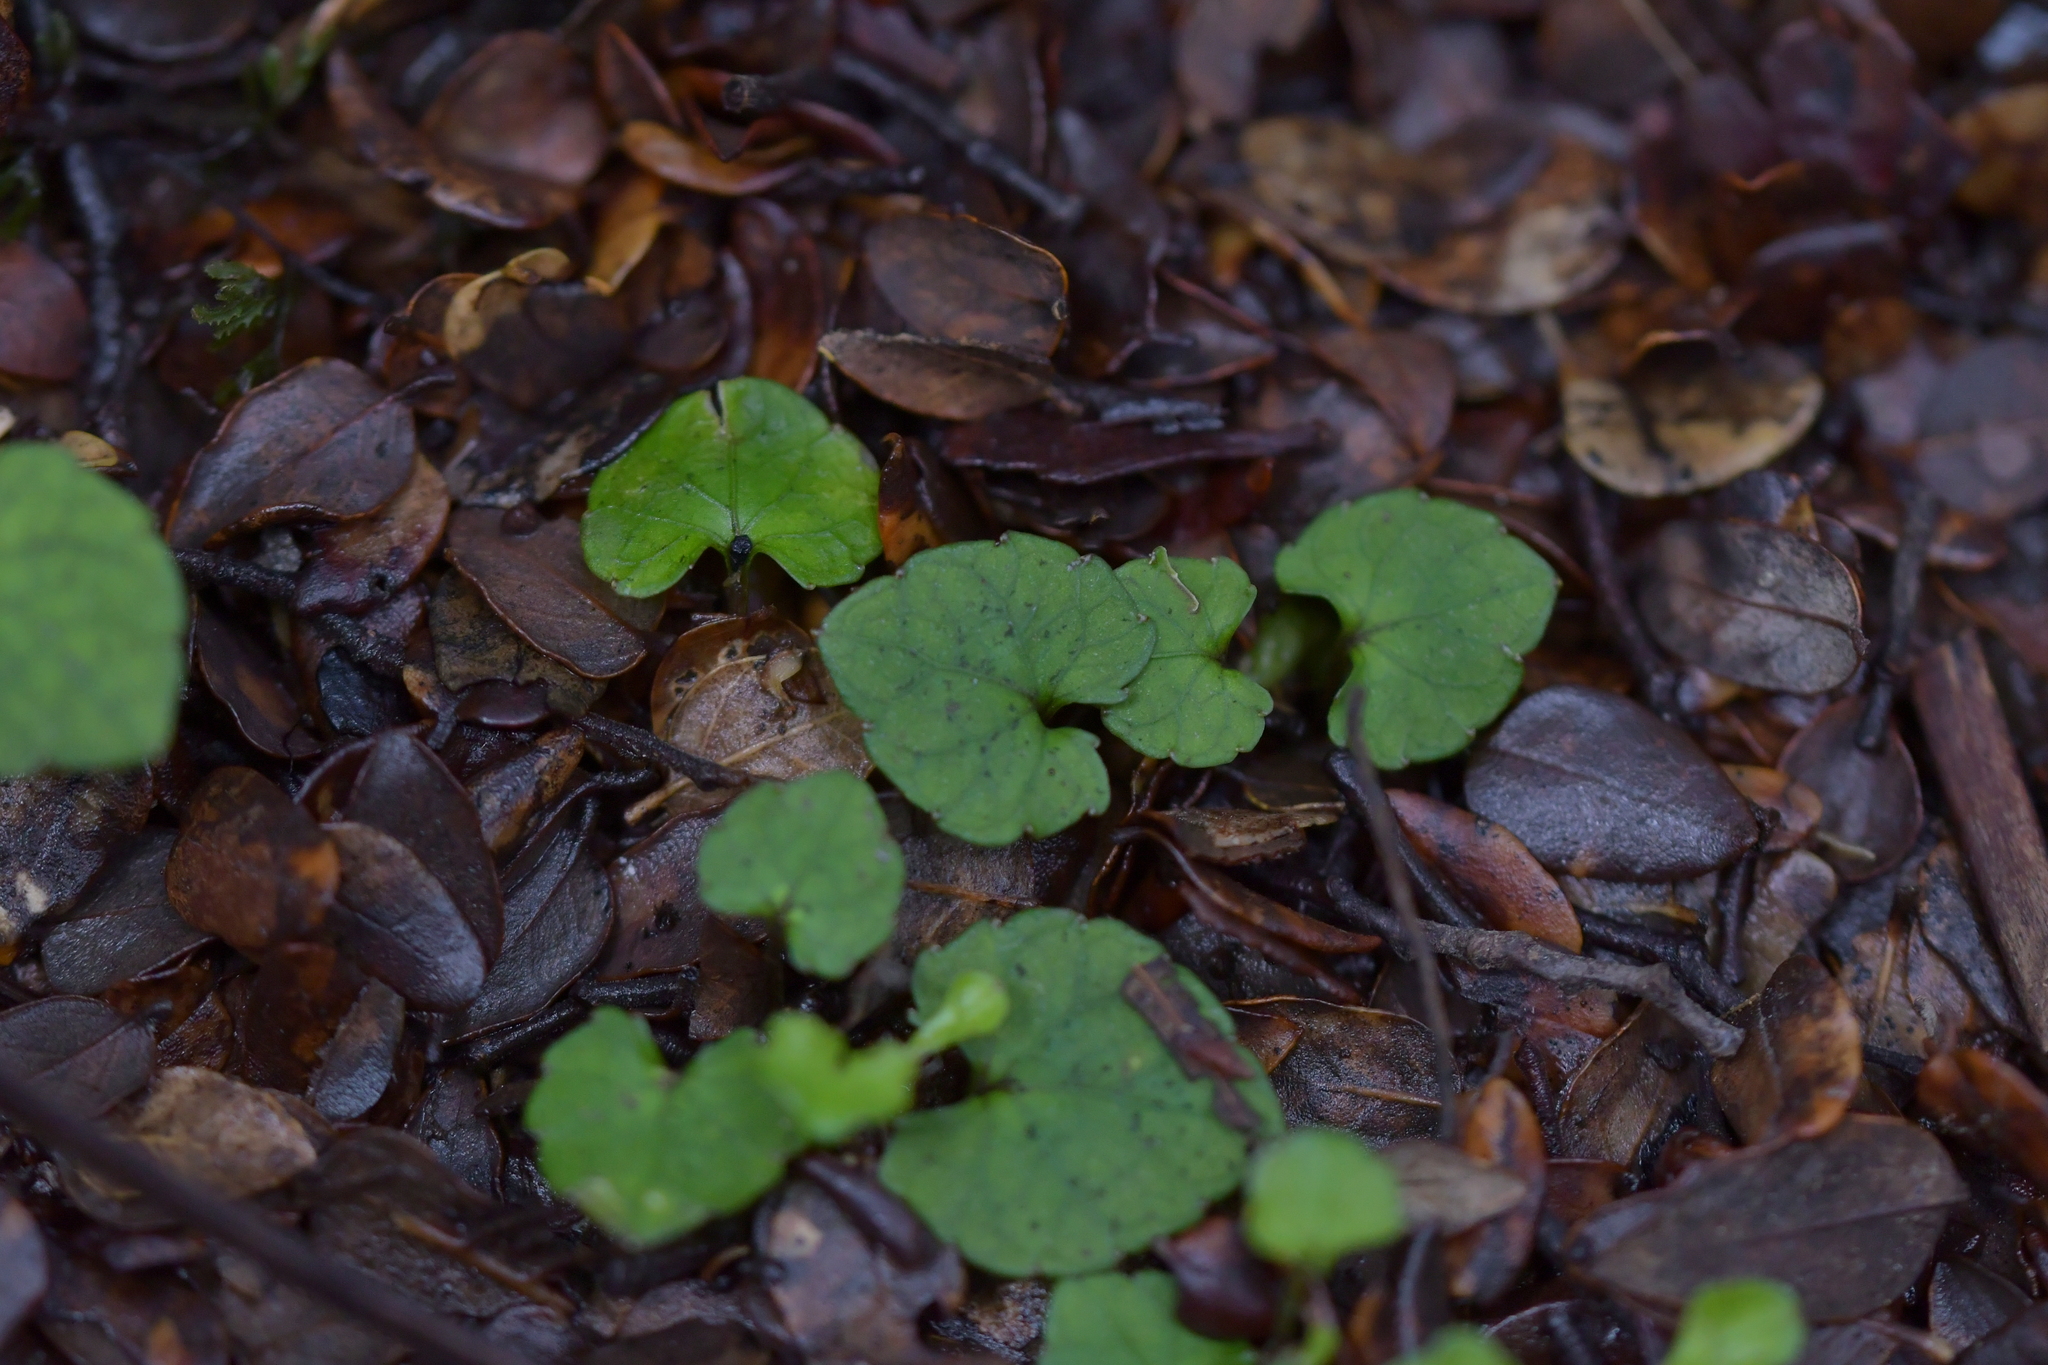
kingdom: Plantae
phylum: Tracheophyta
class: Magnoliopsida
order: Malpighiales
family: Violaceae
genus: Viola
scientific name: Viola filicaulis
